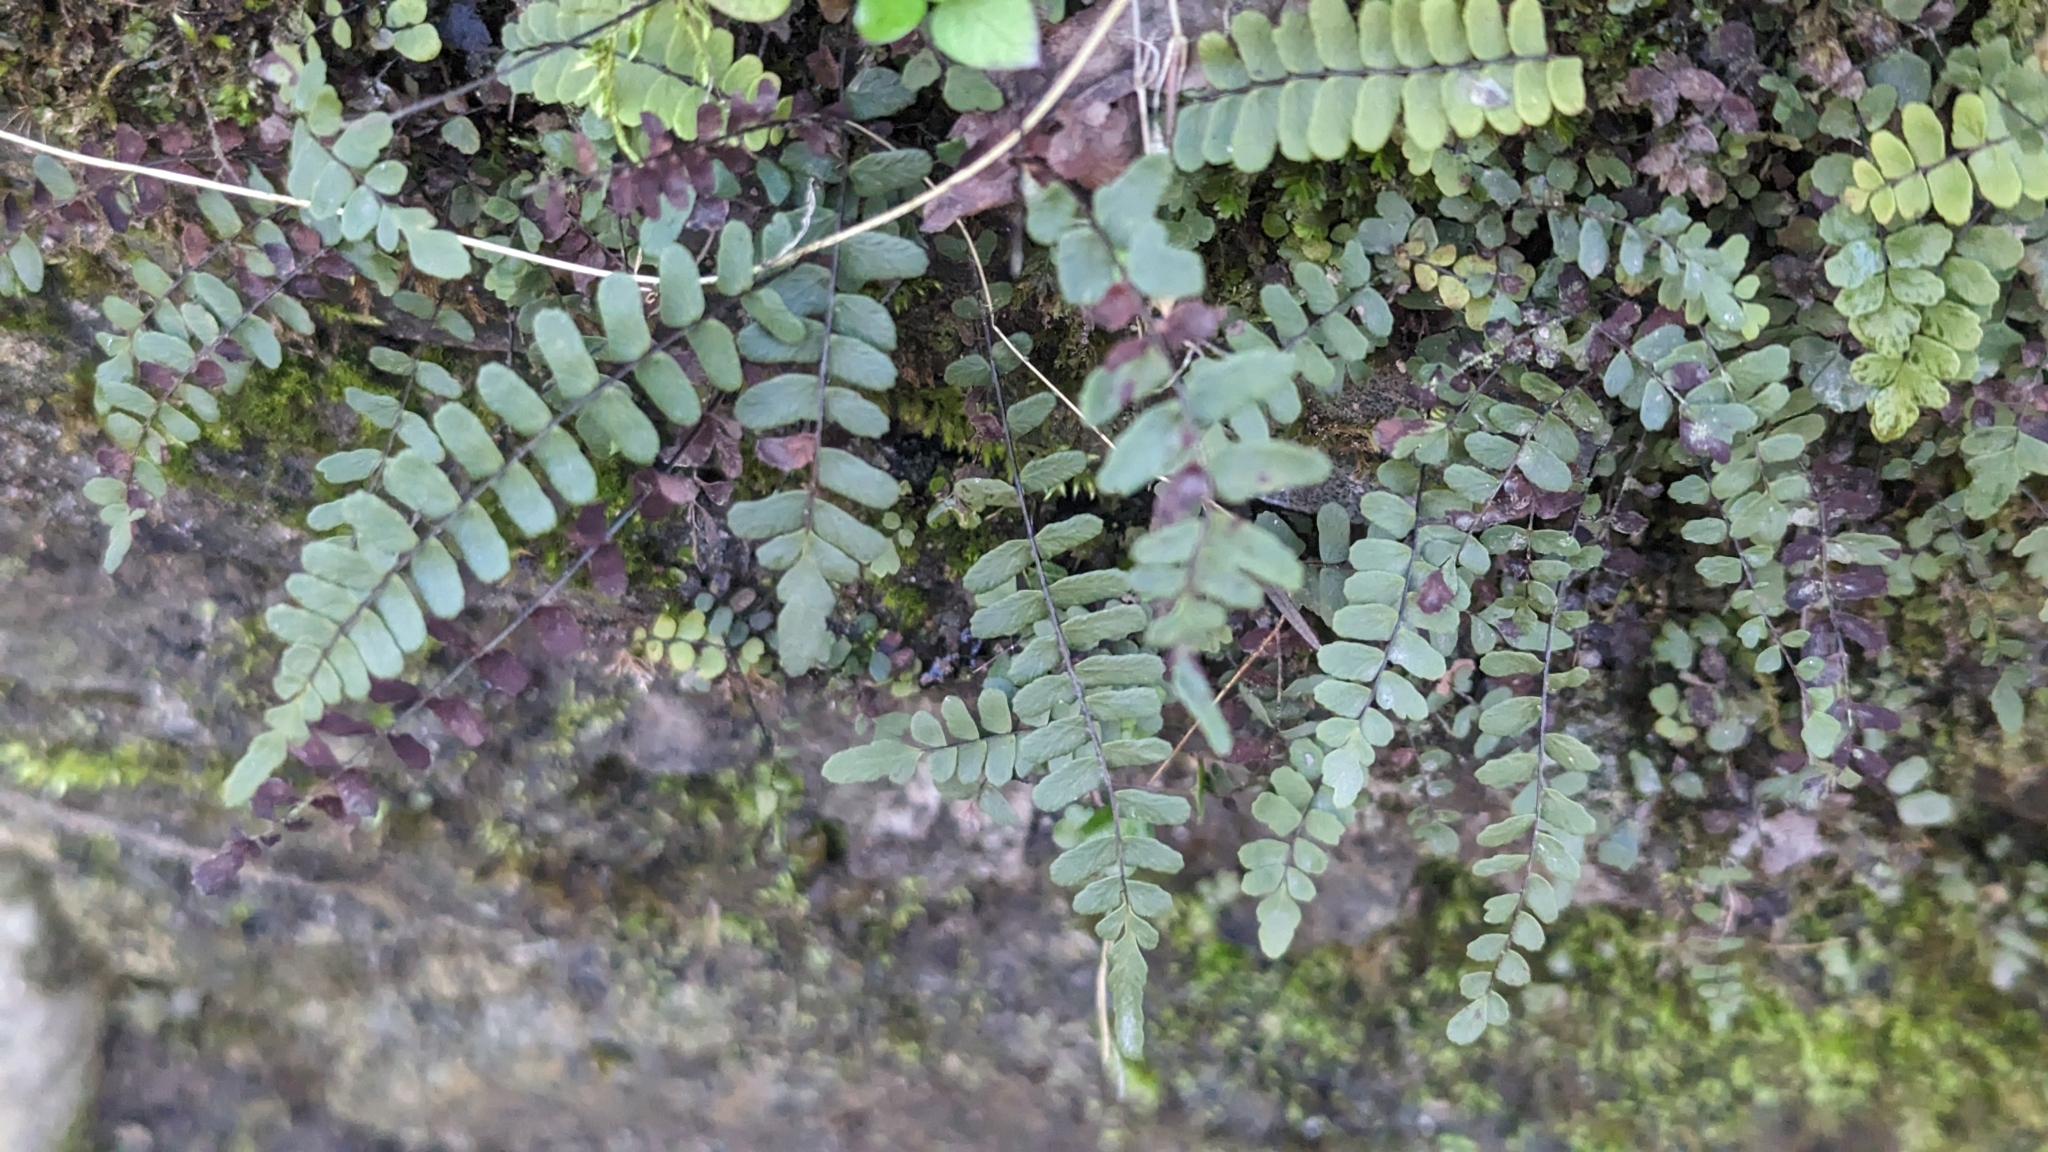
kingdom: Plantae
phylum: Tracheophyta
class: Polypodiopsida
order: Polypodiales
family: Aspleniaceae
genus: Asplenium
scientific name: Asplenium resiliens
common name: Blackstem spleenwort
